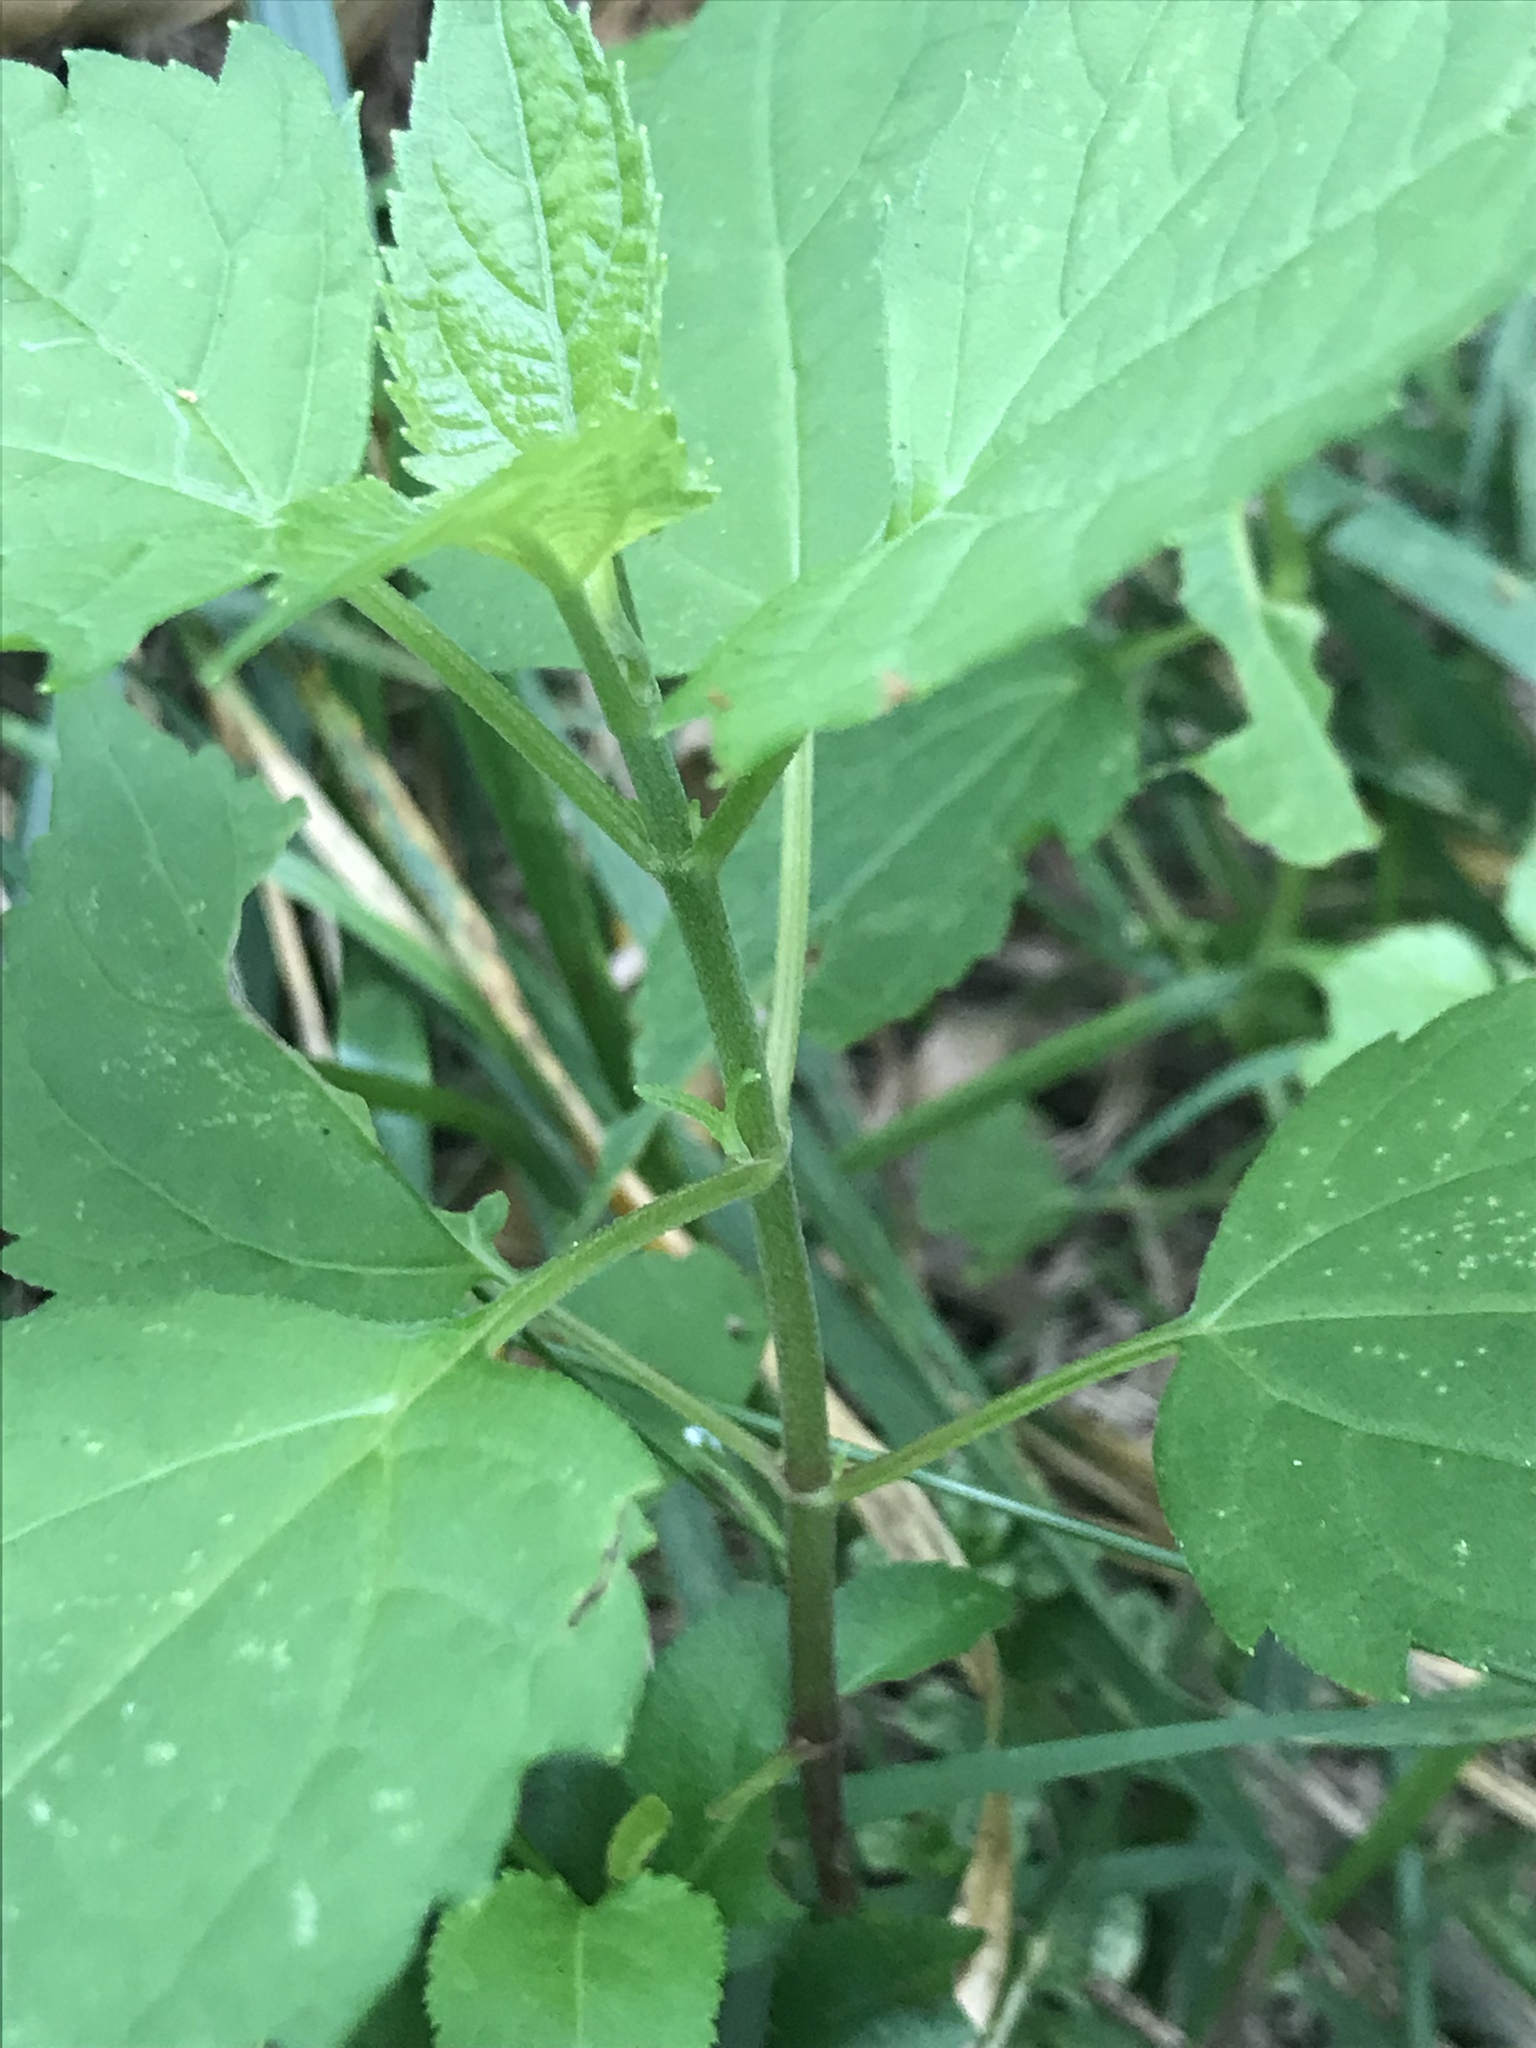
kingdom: Plantae
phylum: Tracheophyta
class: Magnoliopsida
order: Asterales
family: Asteraceae
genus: Ageratina
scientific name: Ageratina altissima
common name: White snakeroot
